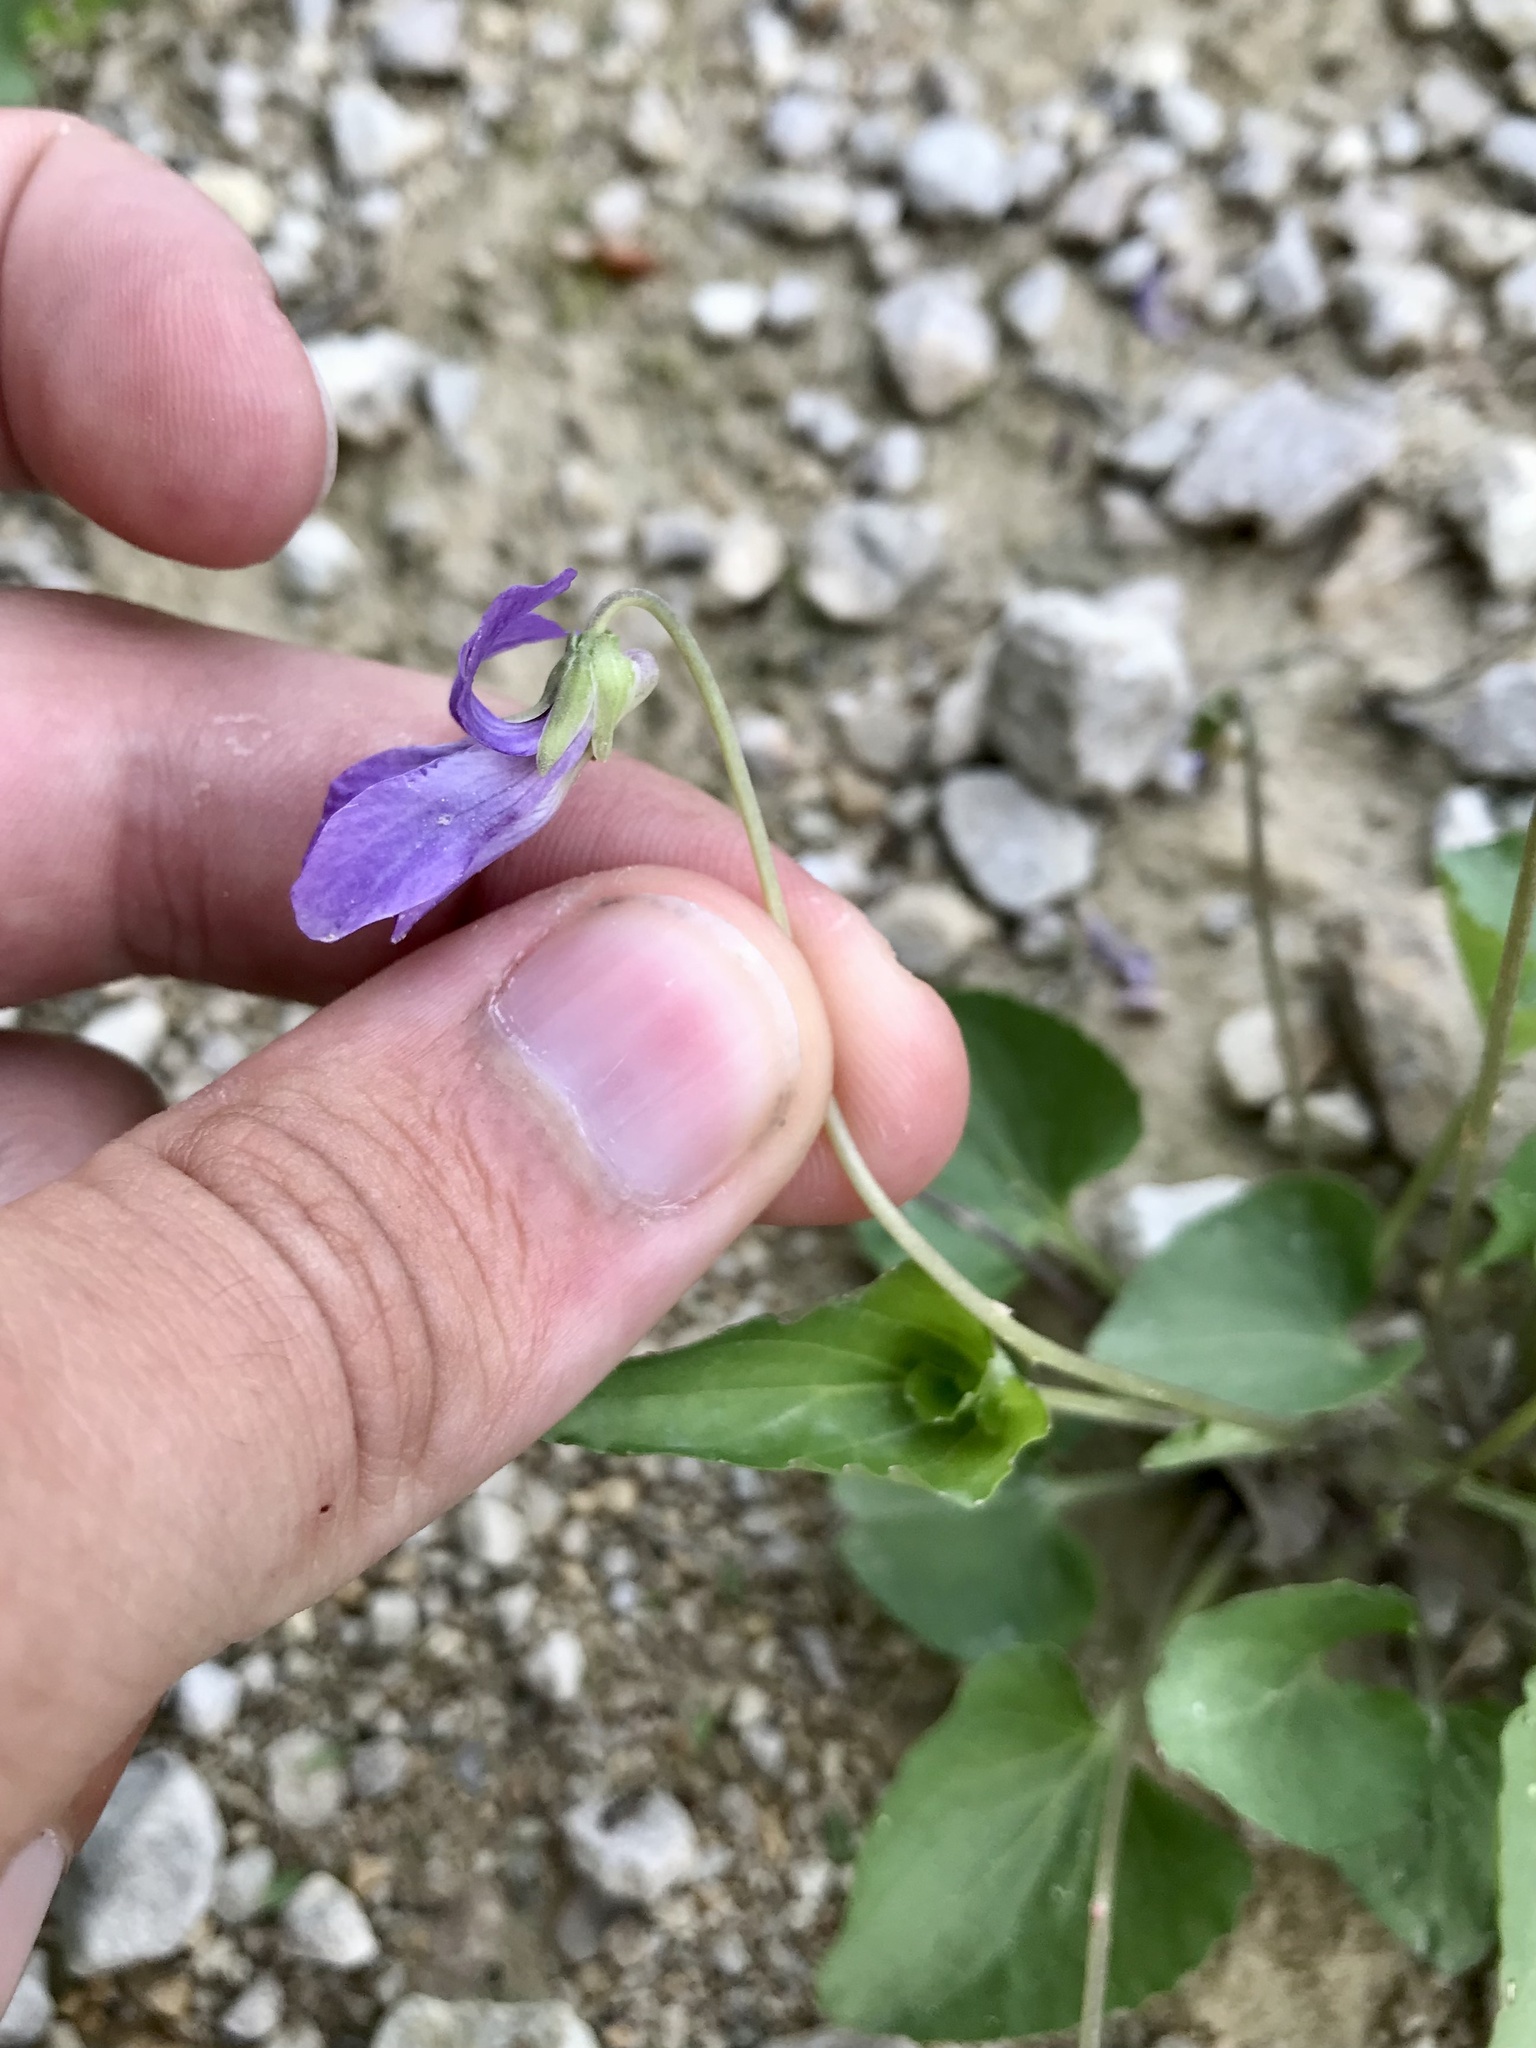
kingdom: Plantae
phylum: Tracheophyta
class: Magnoliopsida
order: Malpighiales
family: Violaceae
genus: Viola
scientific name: Viola communis
